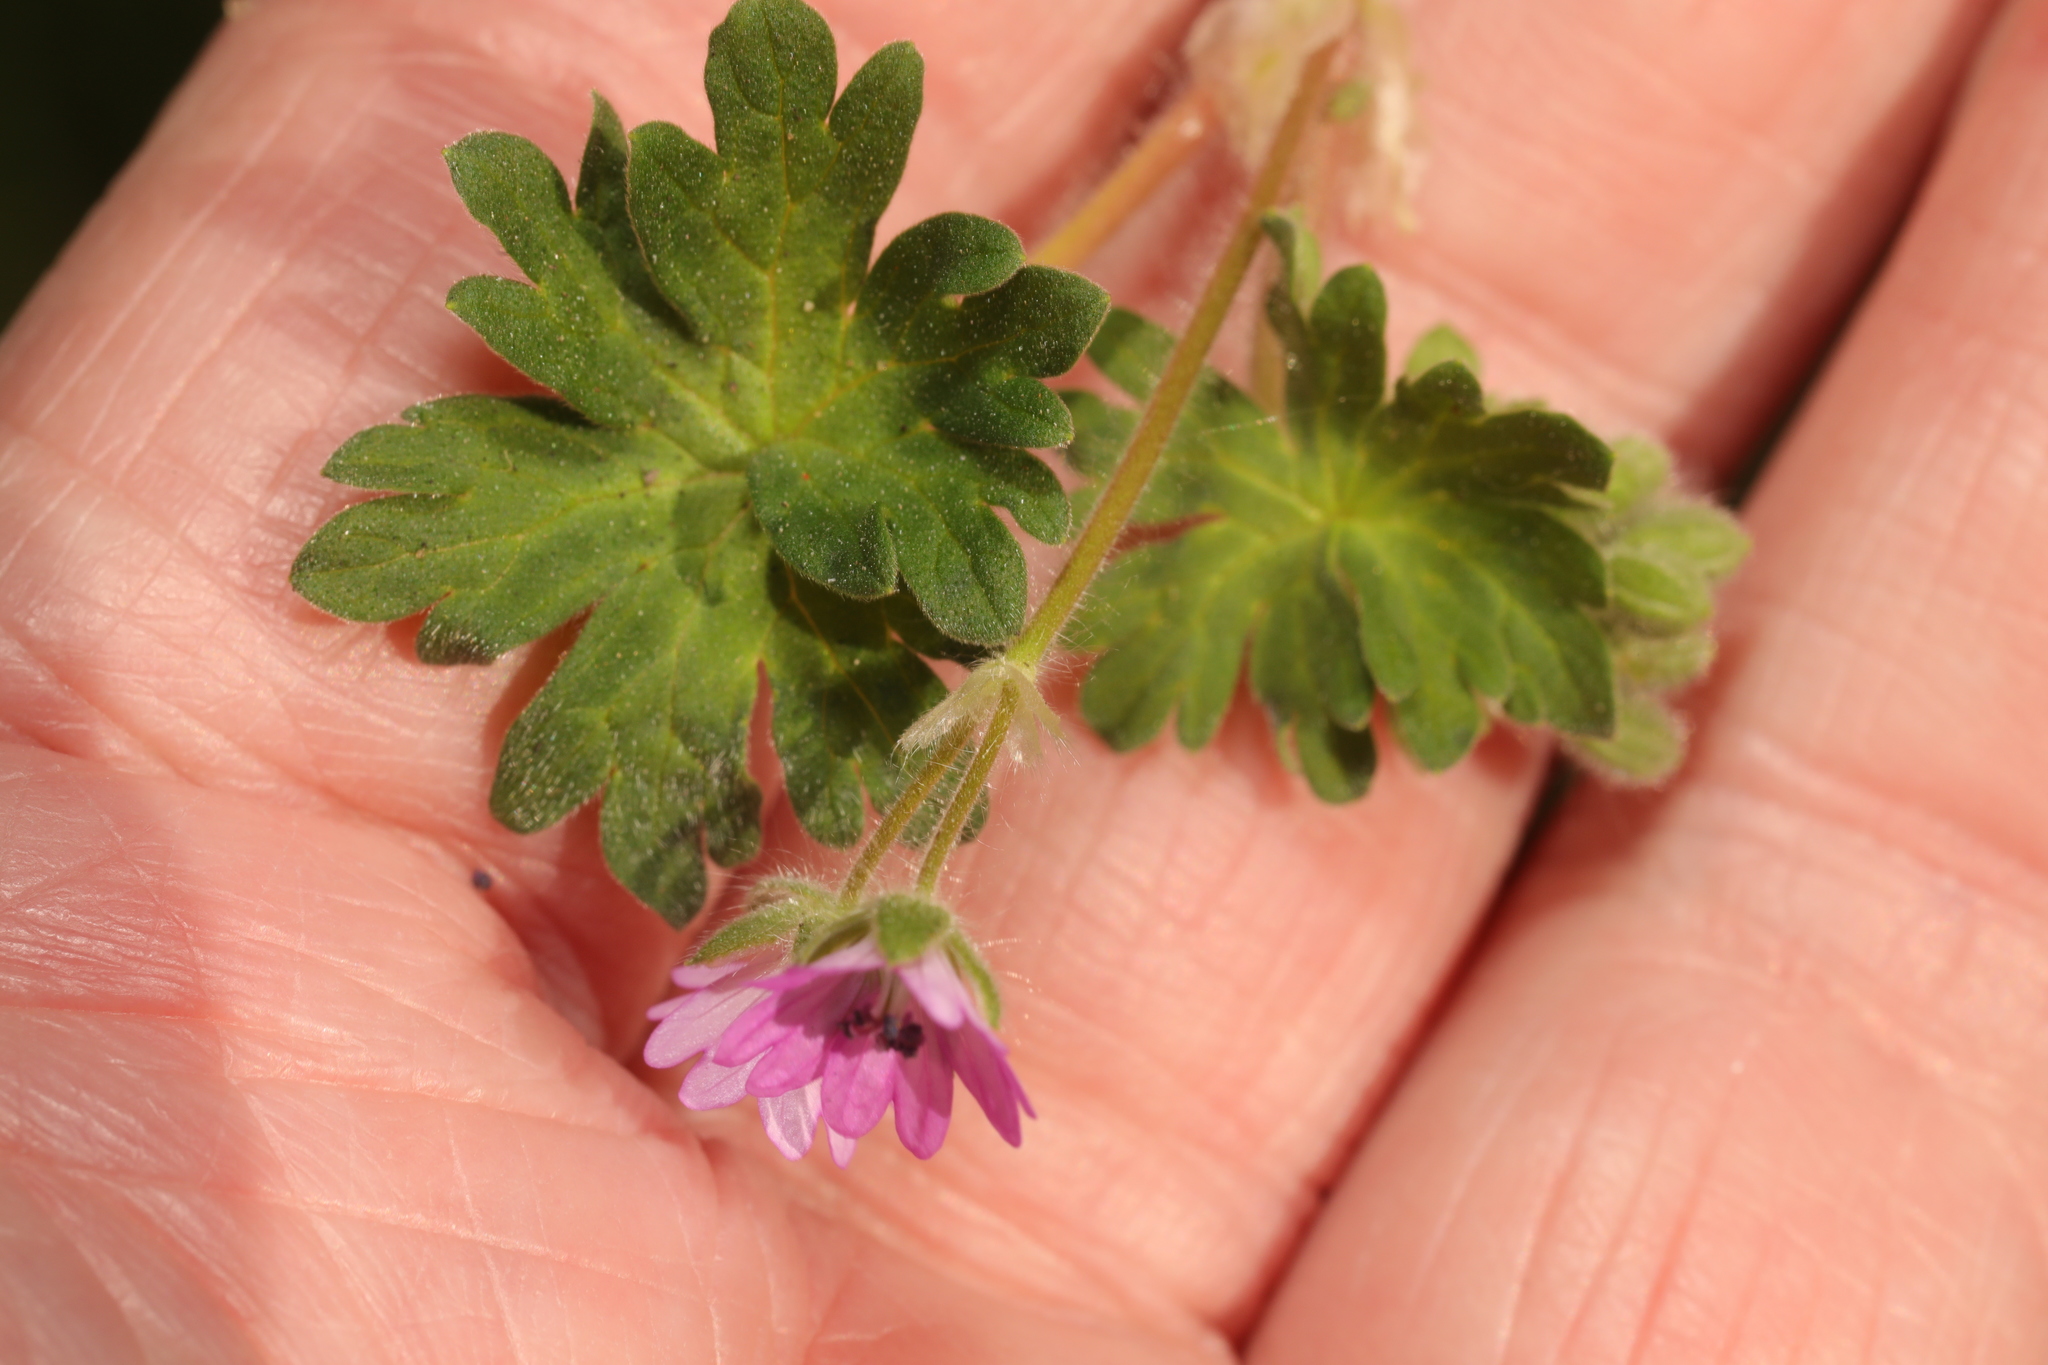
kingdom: Plantae
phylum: Tracheophyta
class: Magnoliopsida
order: Geraniales
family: Geraniaceae
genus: Geranium
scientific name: Geranium molle
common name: Dove's-foot crane's-bill
